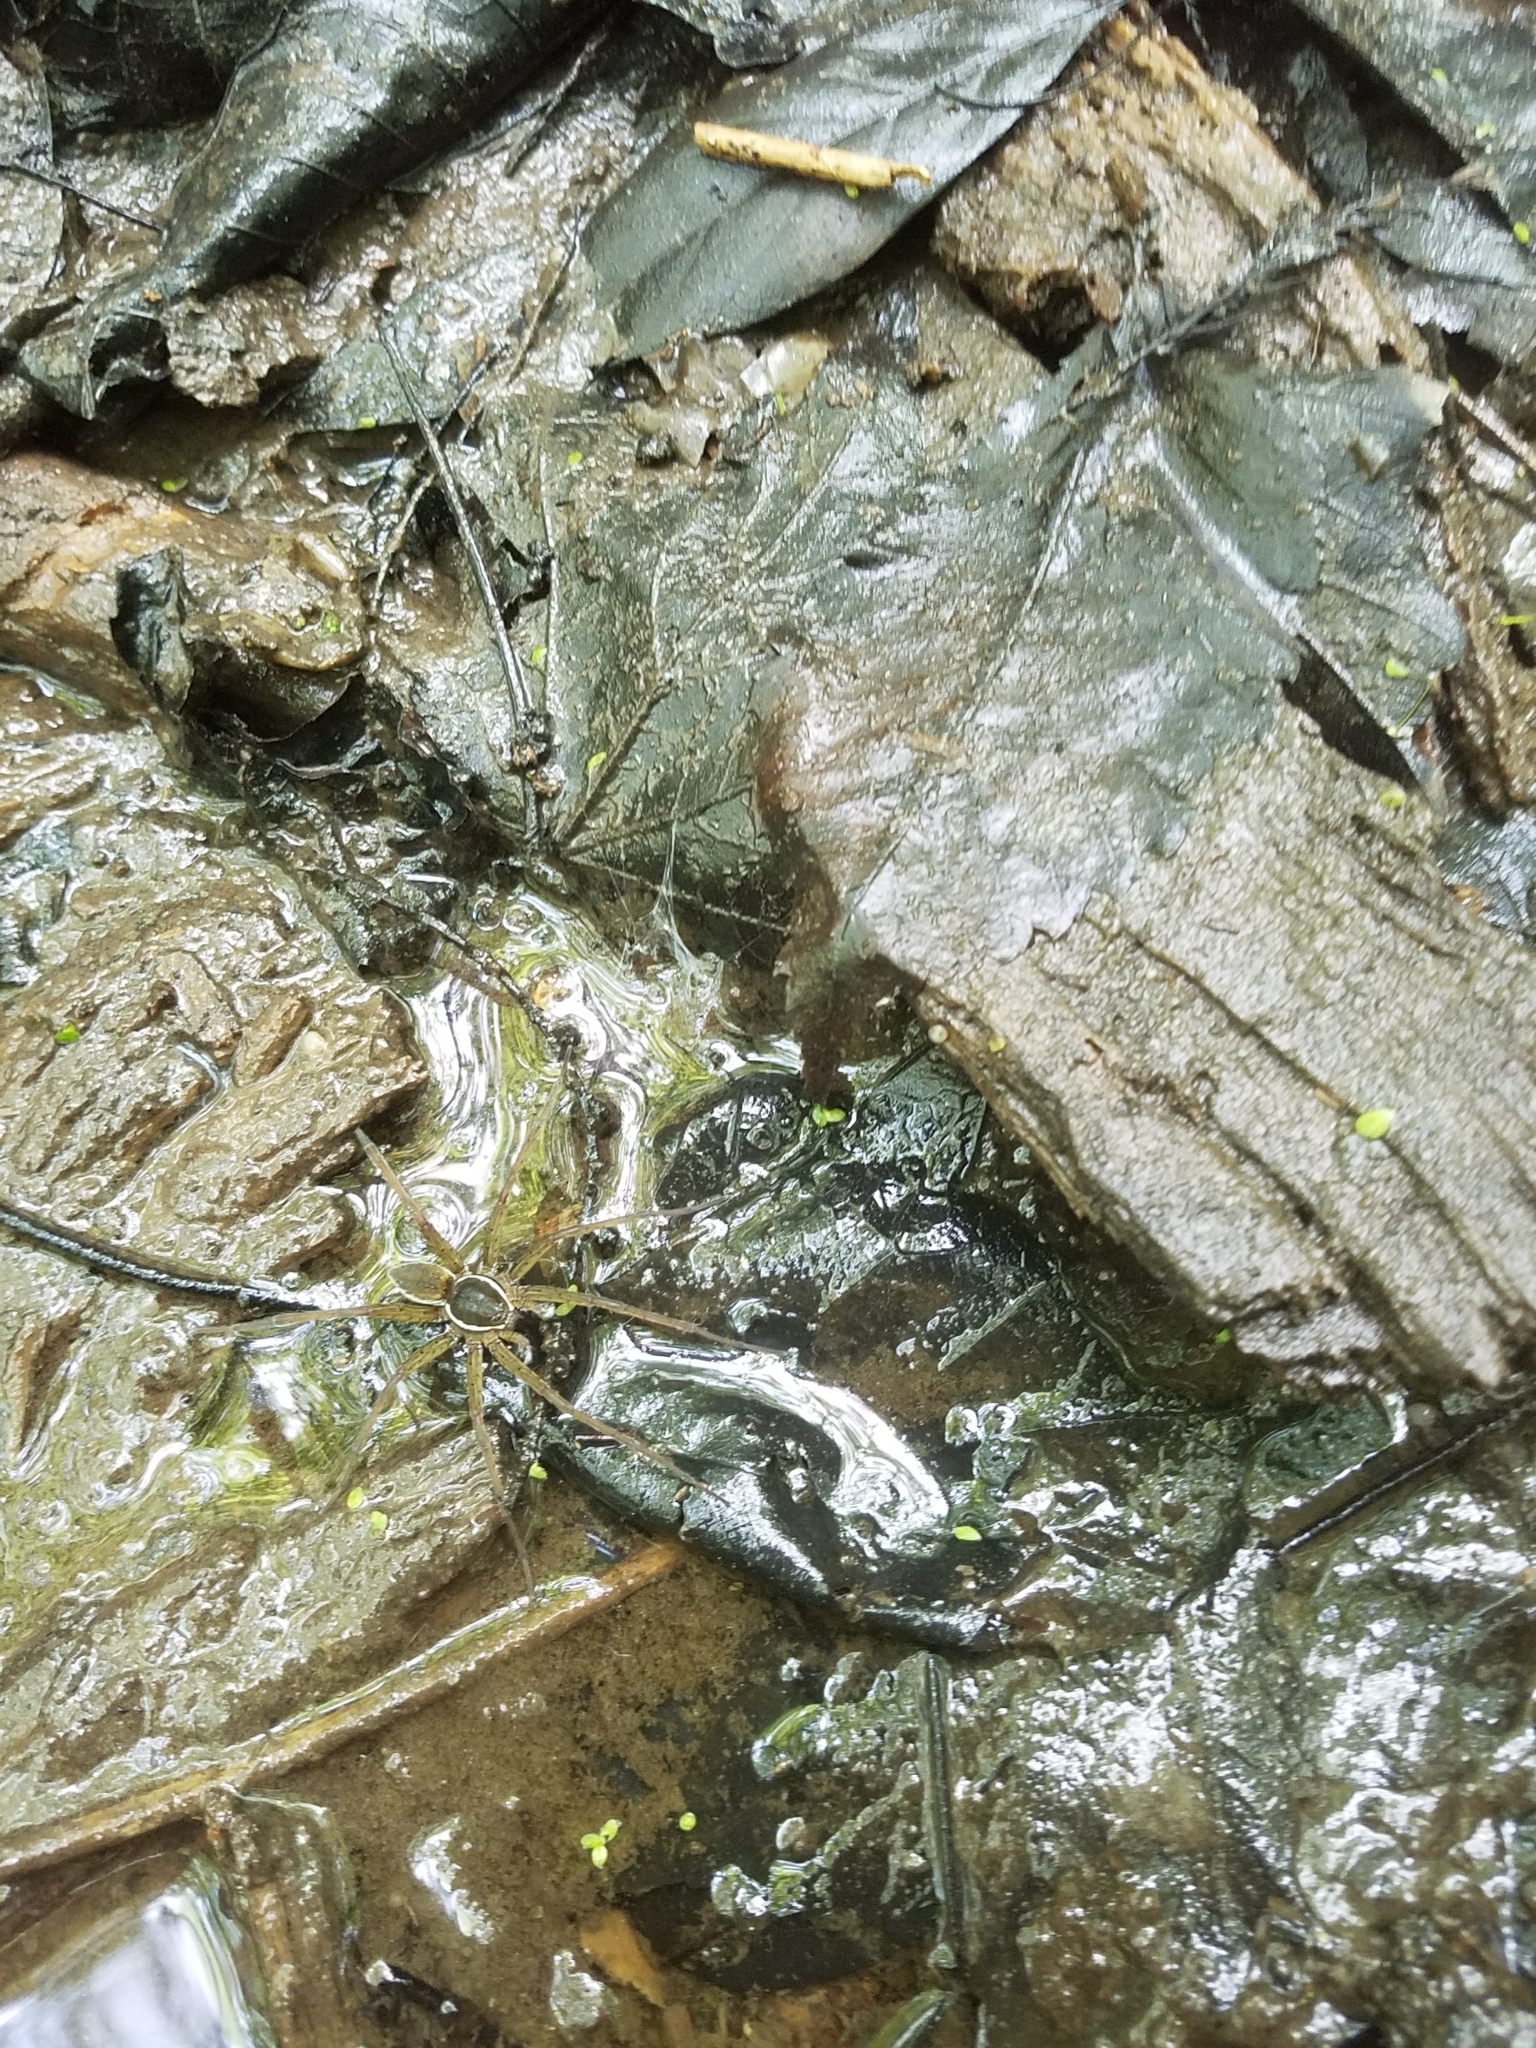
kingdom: Animalia
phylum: Arthropoda
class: Arachnida
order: Araneae
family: Pisauridae
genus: Dolomedes
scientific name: Dolomedes triton
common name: Six-spotted fishing spider
